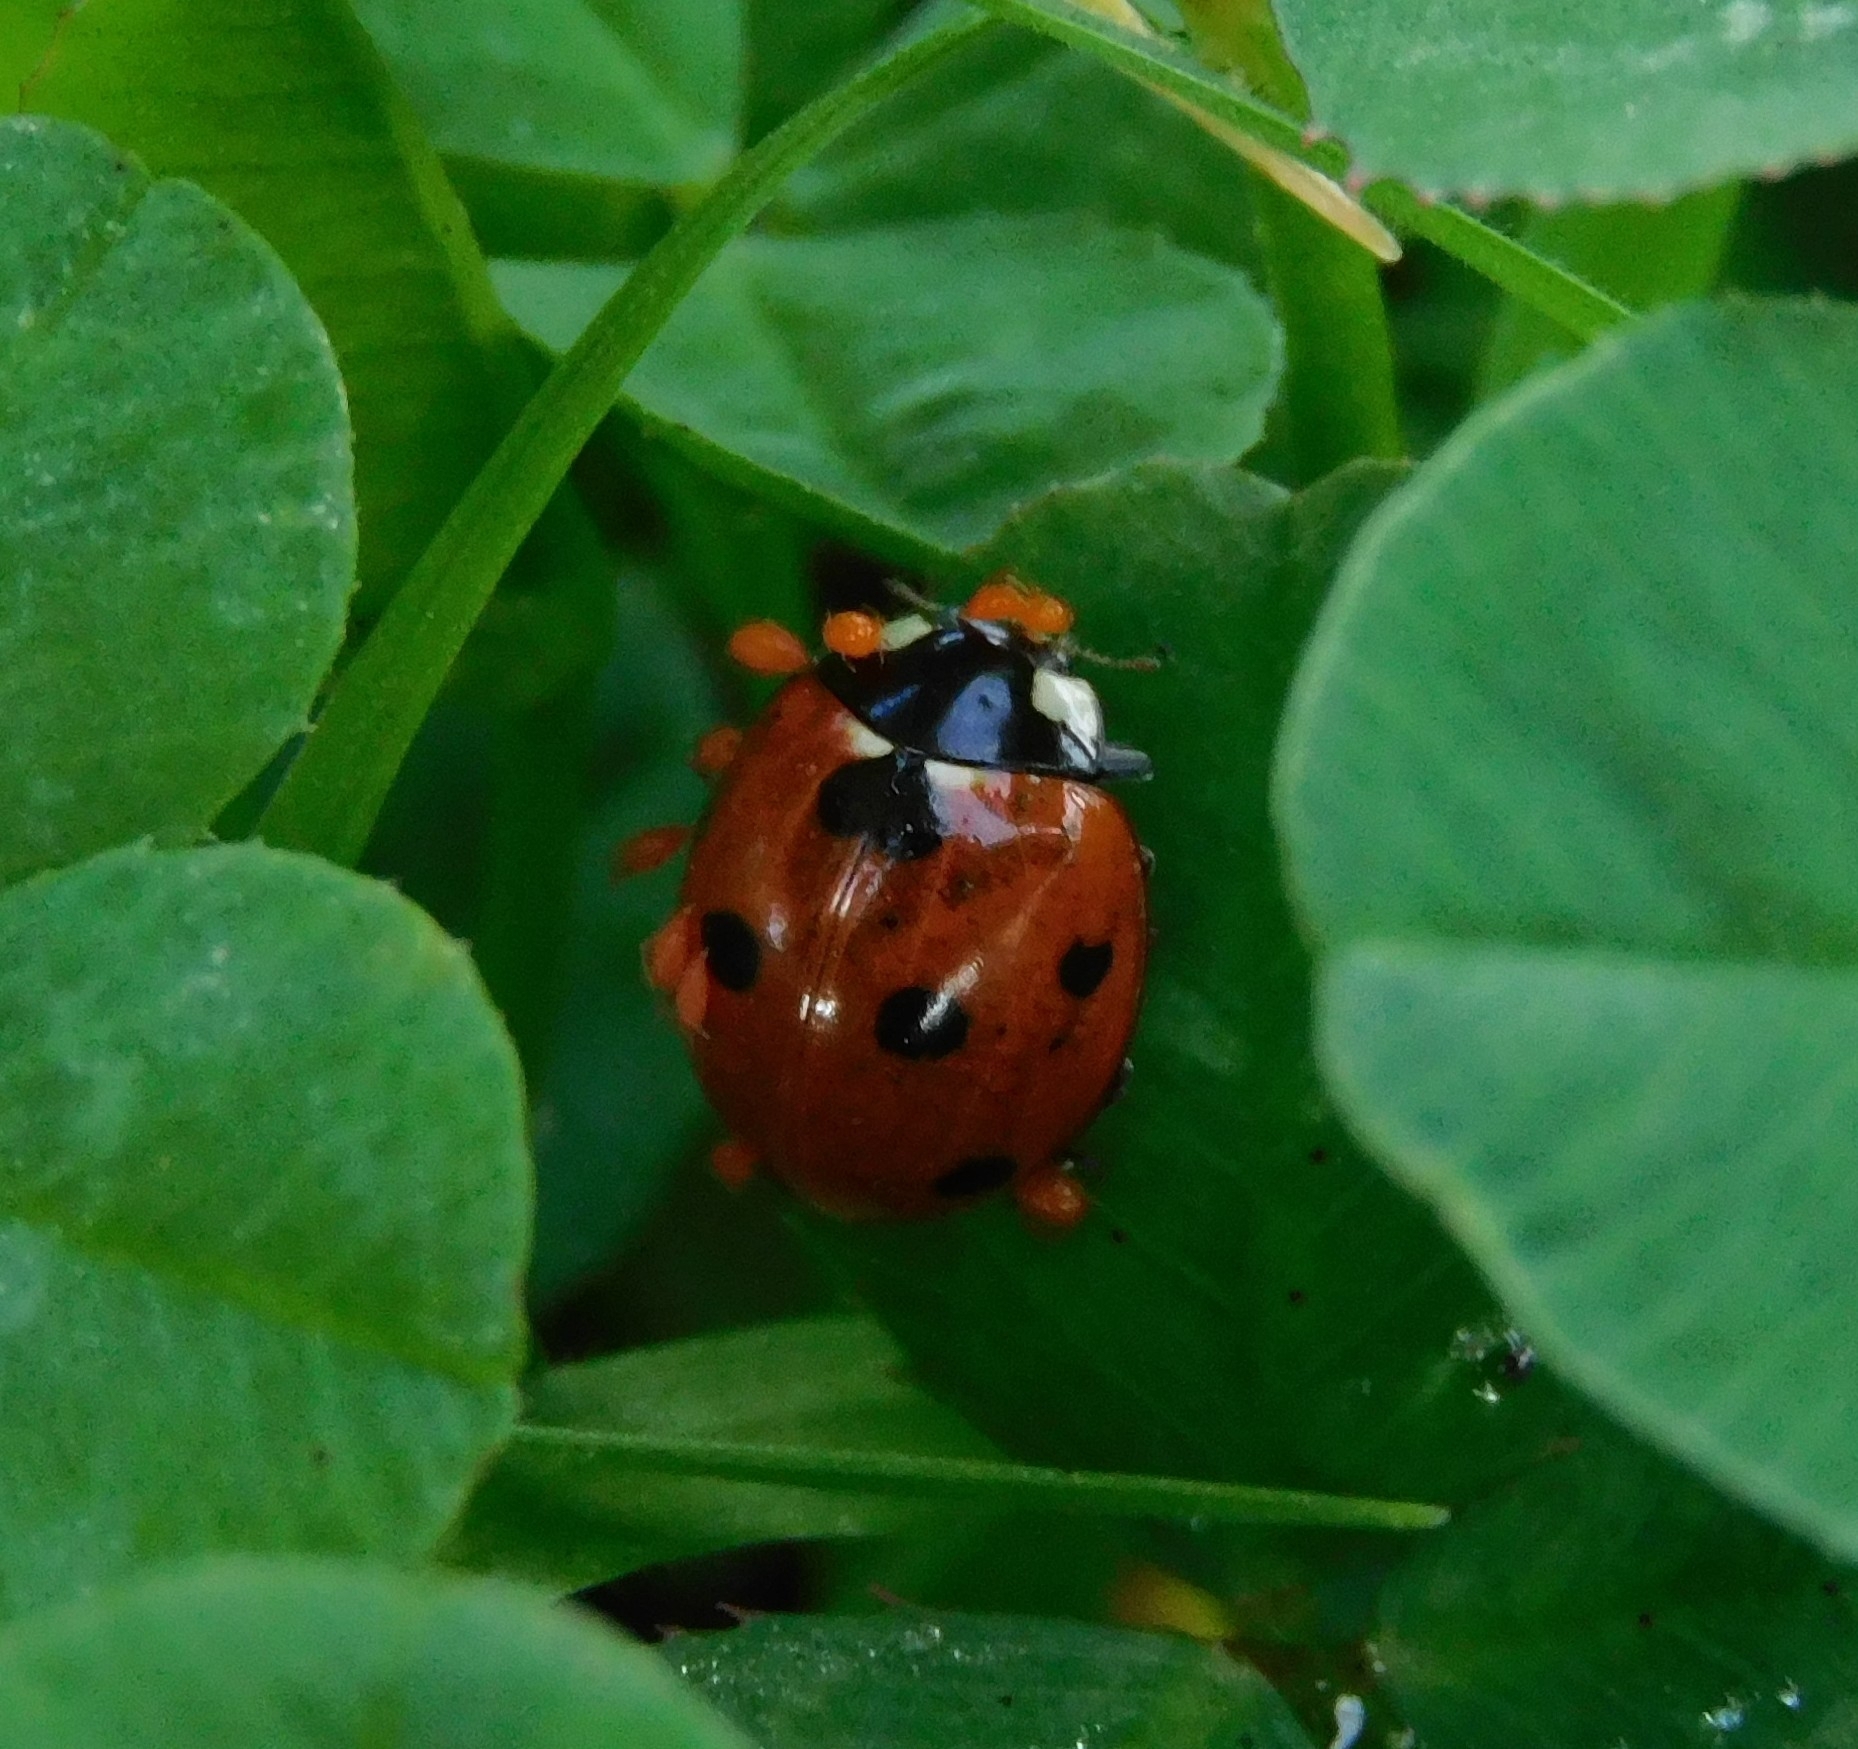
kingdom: Animalia
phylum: Arthropoda
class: Insecta
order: Coleoptera
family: Coccinellidae
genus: Coccinella
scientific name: Coccinella septempunctata
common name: Sevenspotted lady beetle
